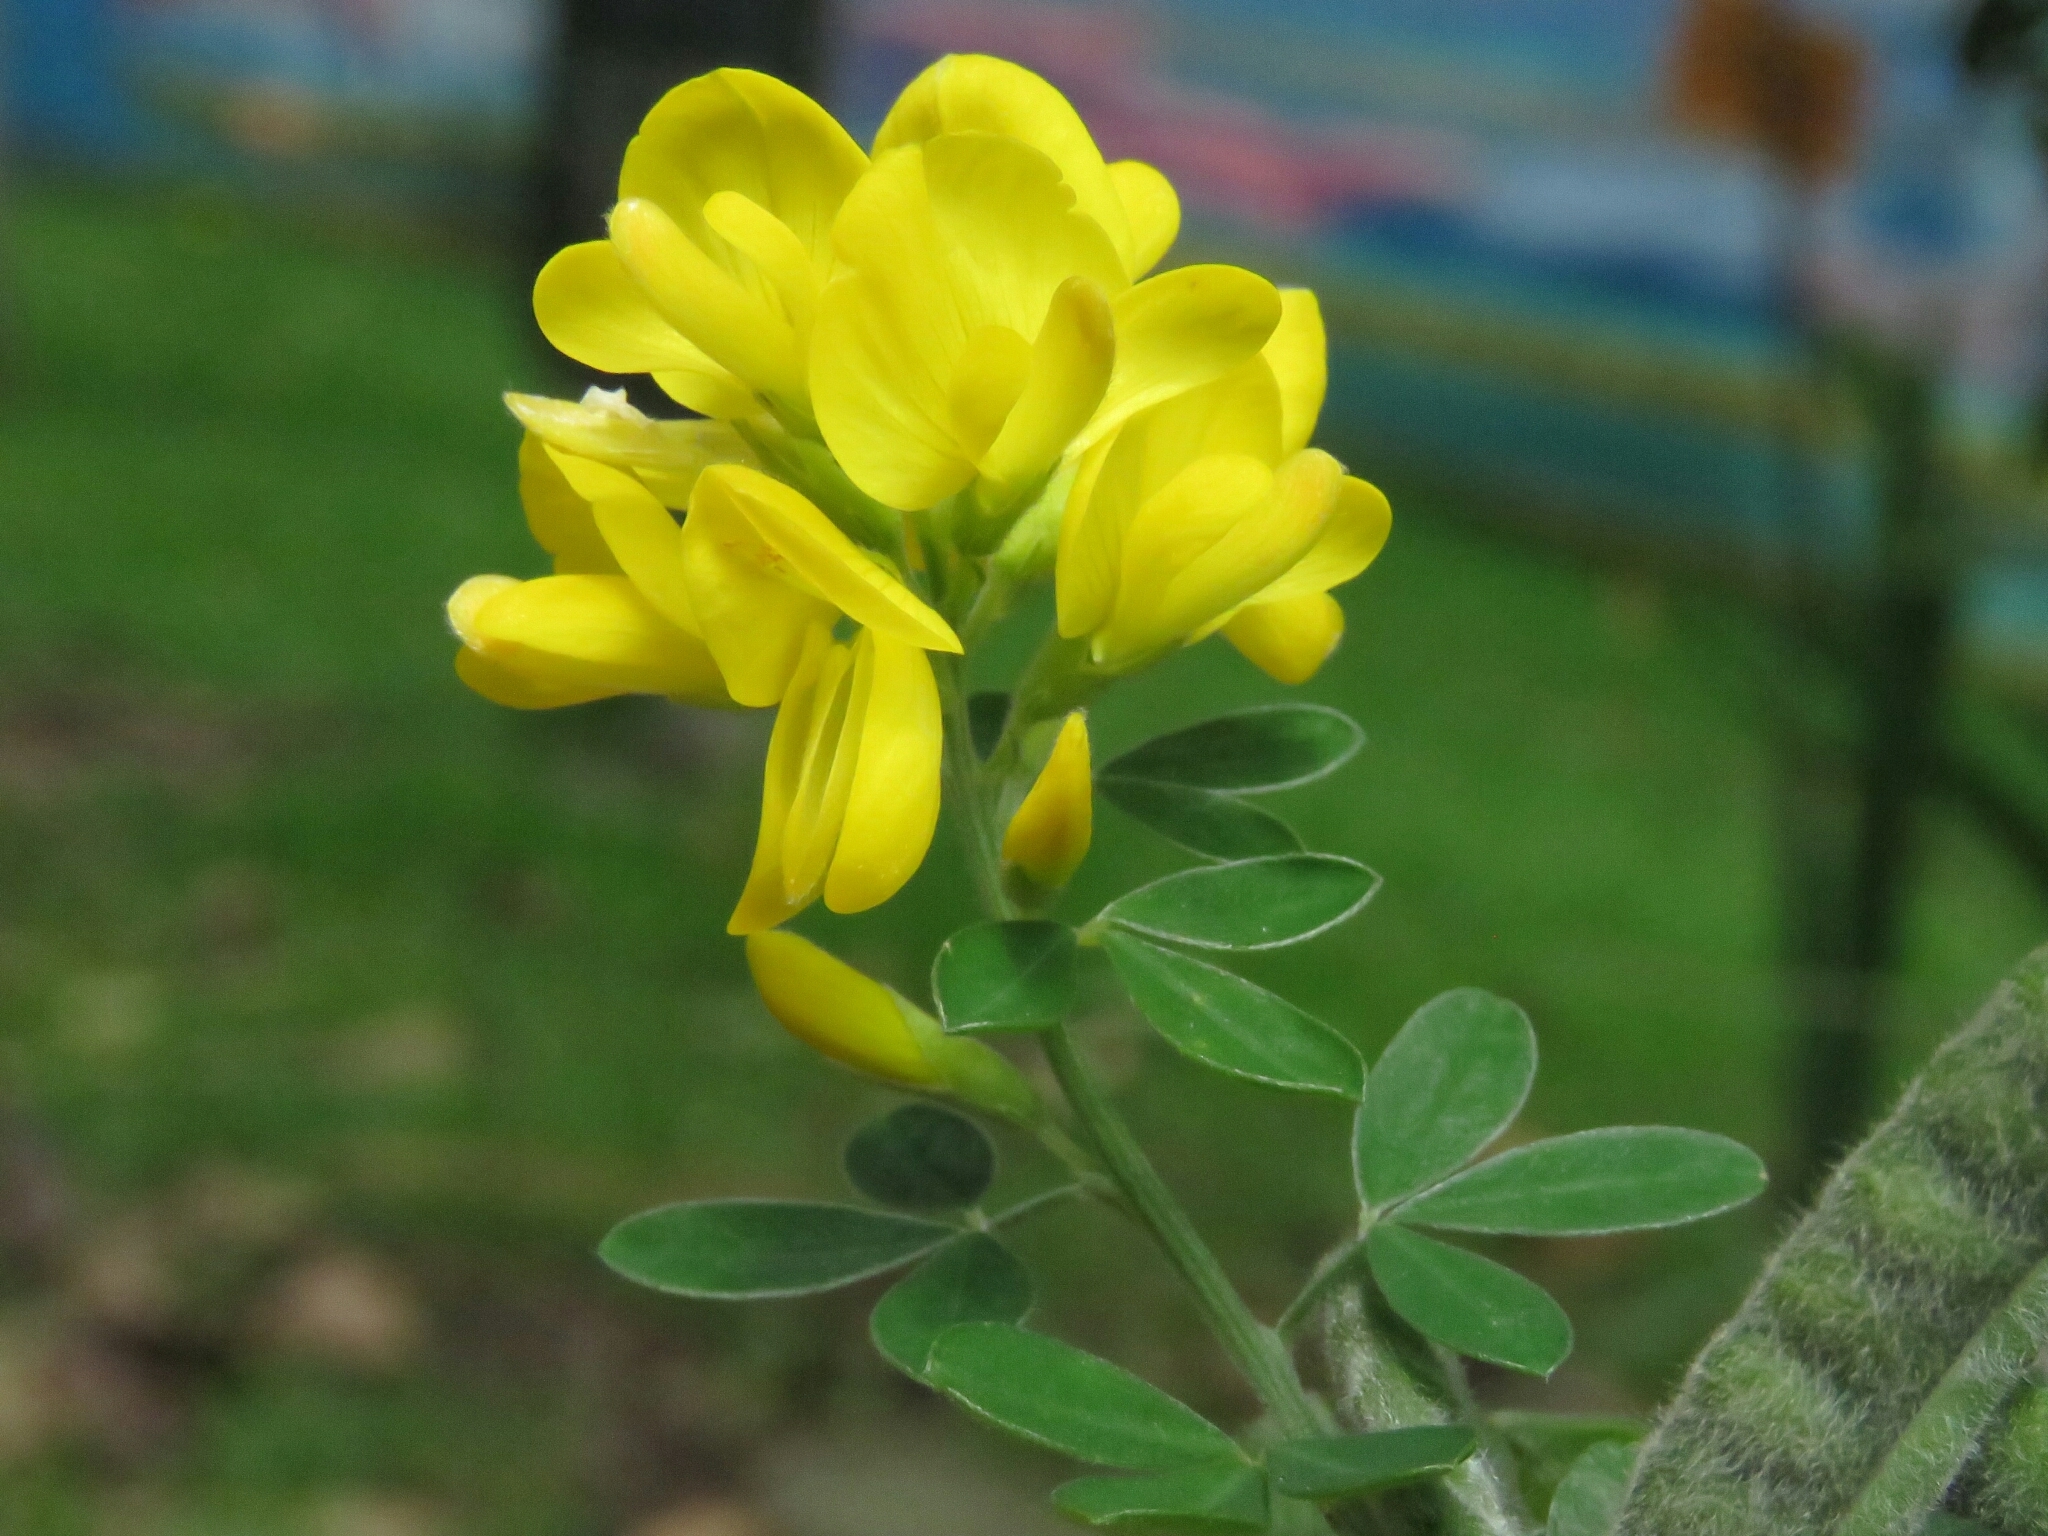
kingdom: Plantae
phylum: Tracheophyta
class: Magnoliopsida
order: Fabales
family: Fabaceae
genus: Genista
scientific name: Genista monspessulana
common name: Montpellier broom
